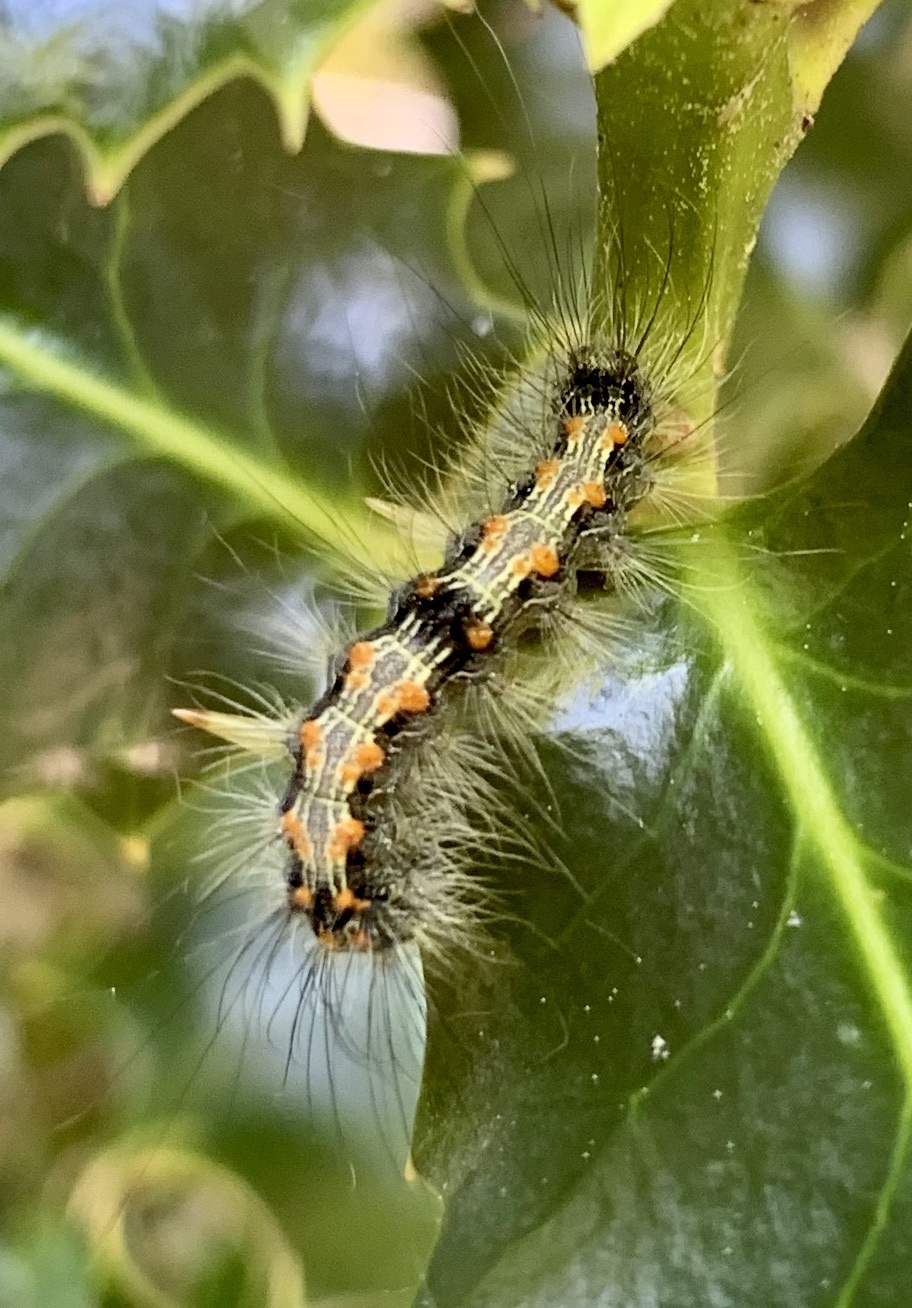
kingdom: Animalia
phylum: Arthropoda
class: Insecta
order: Lepidoptera
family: Erebidae
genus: Lithosia
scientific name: Lithosia quadra
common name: Four-spotted footman
